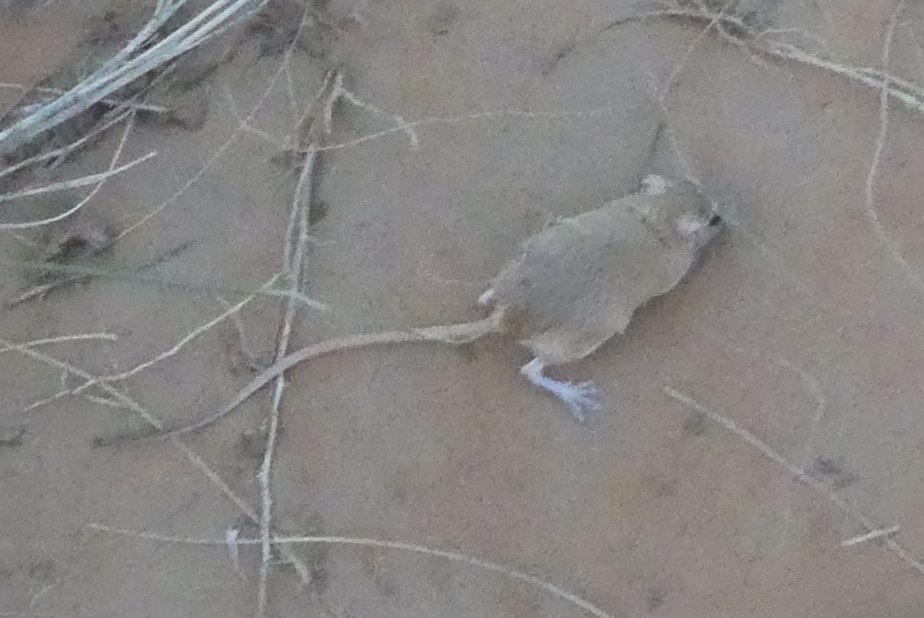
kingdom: Animalia
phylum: Chordata
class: Mammalia
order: Rodentia
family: Muridae
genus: Gerbillus
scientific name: Gerbillus tarabuli
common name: Tarabul's gerbil
